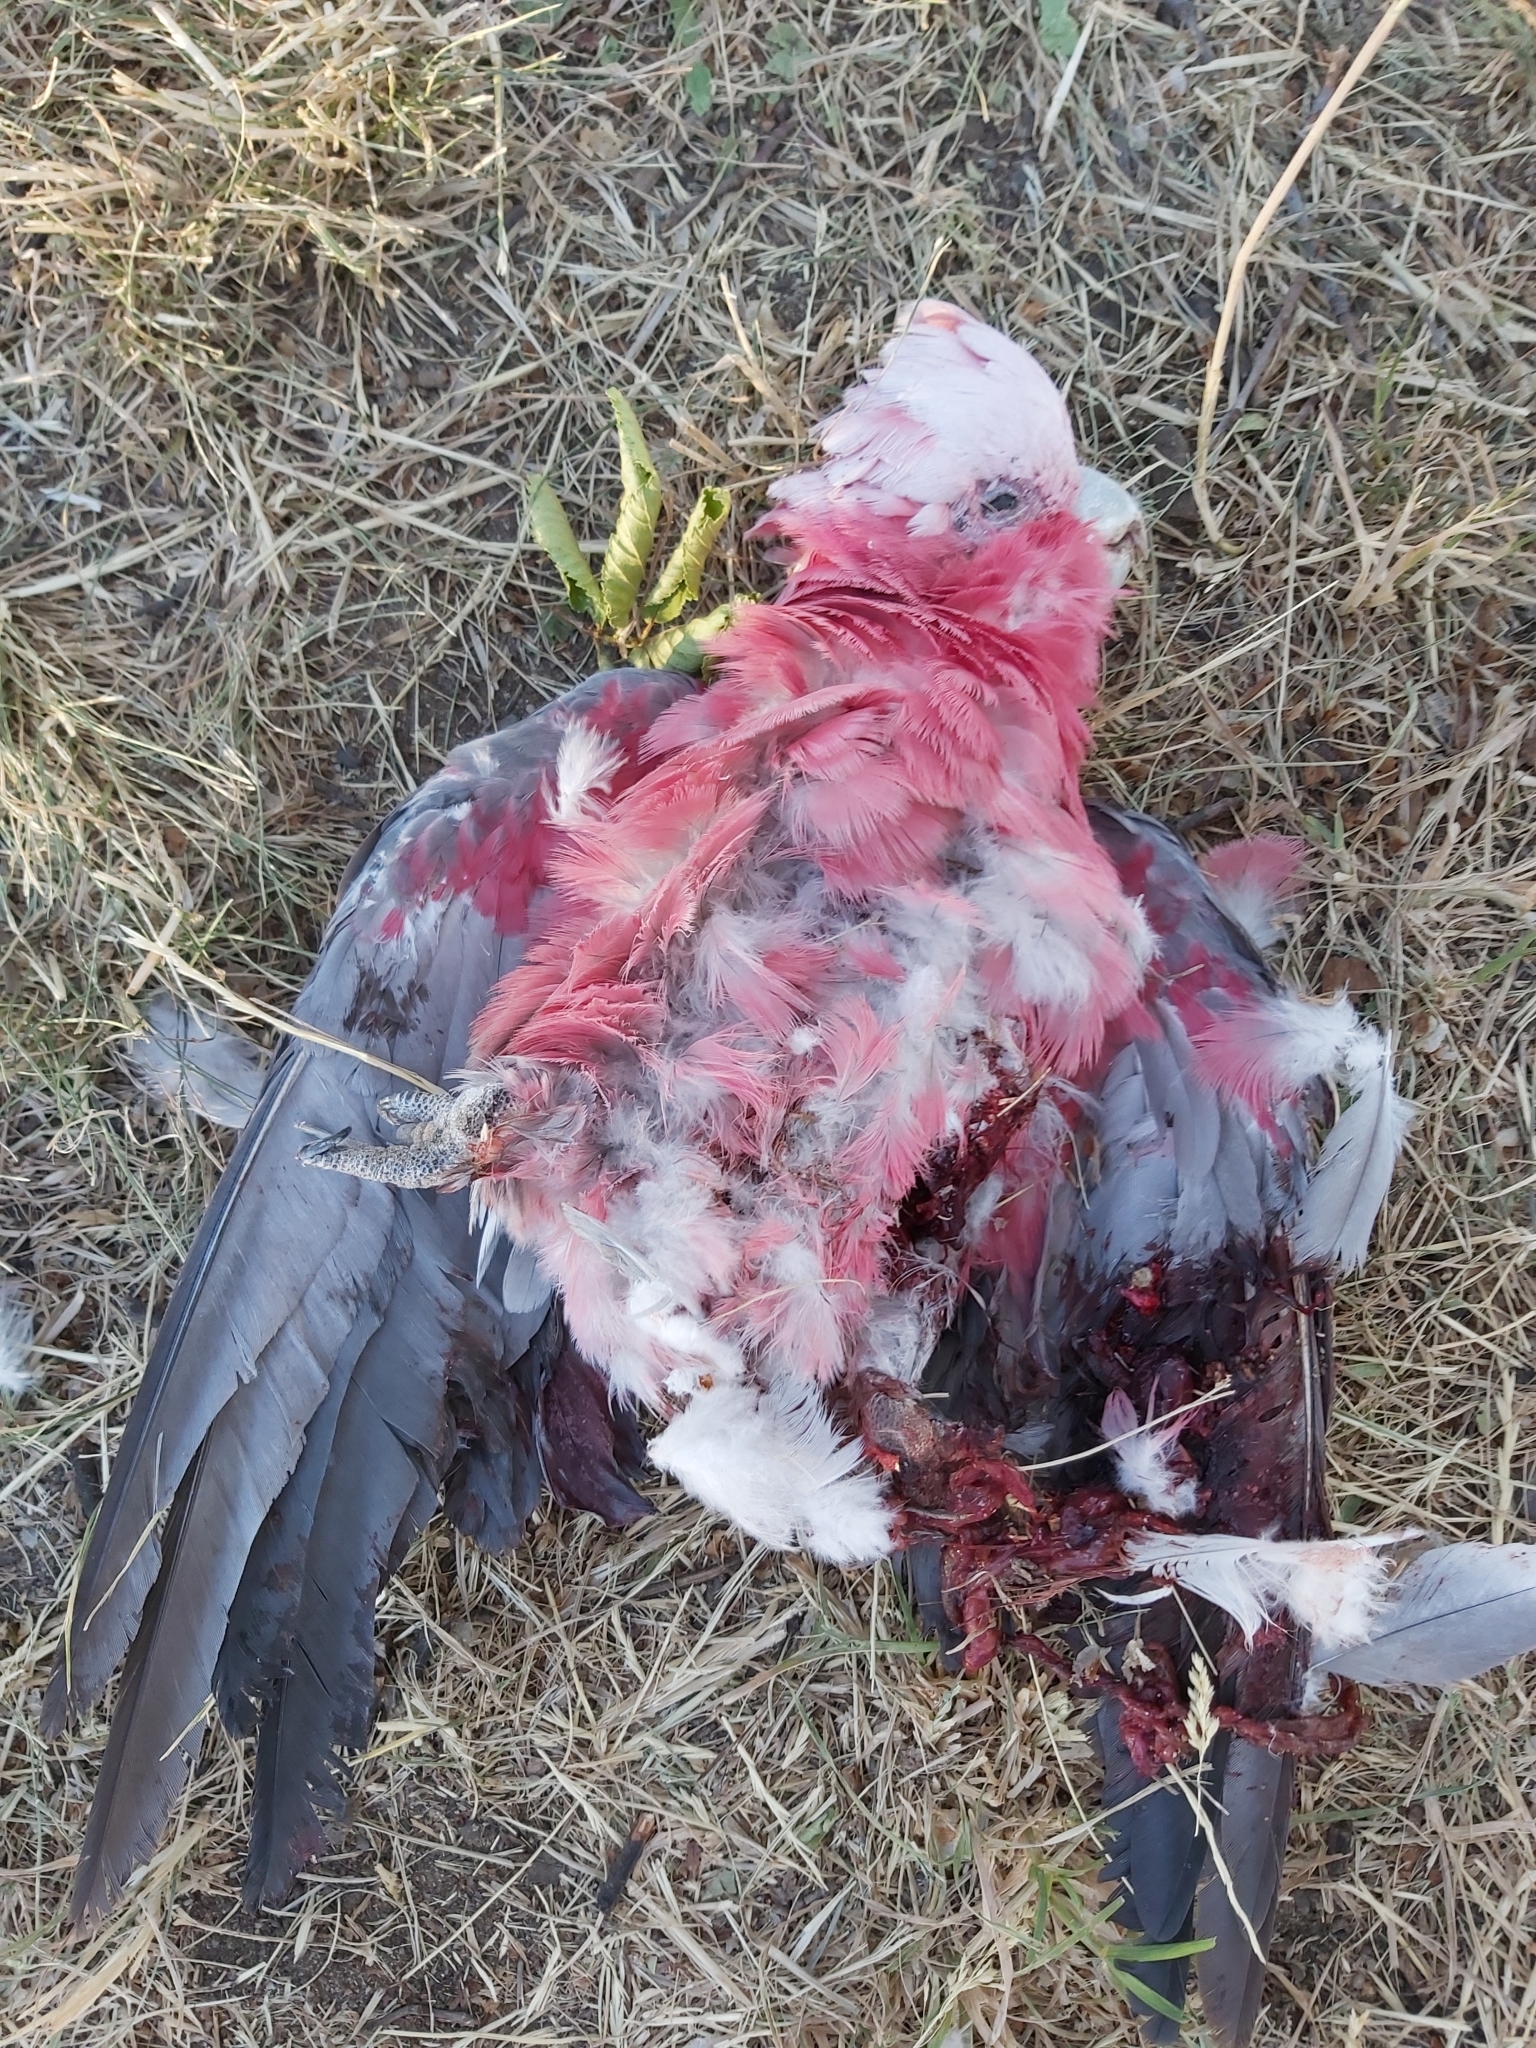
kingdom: Animalia
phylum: Chordata
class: Aves
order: Psittaciformes
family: Psittacidae
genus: Eolophus
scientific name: Eolophus roseicapilla
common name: Galah
